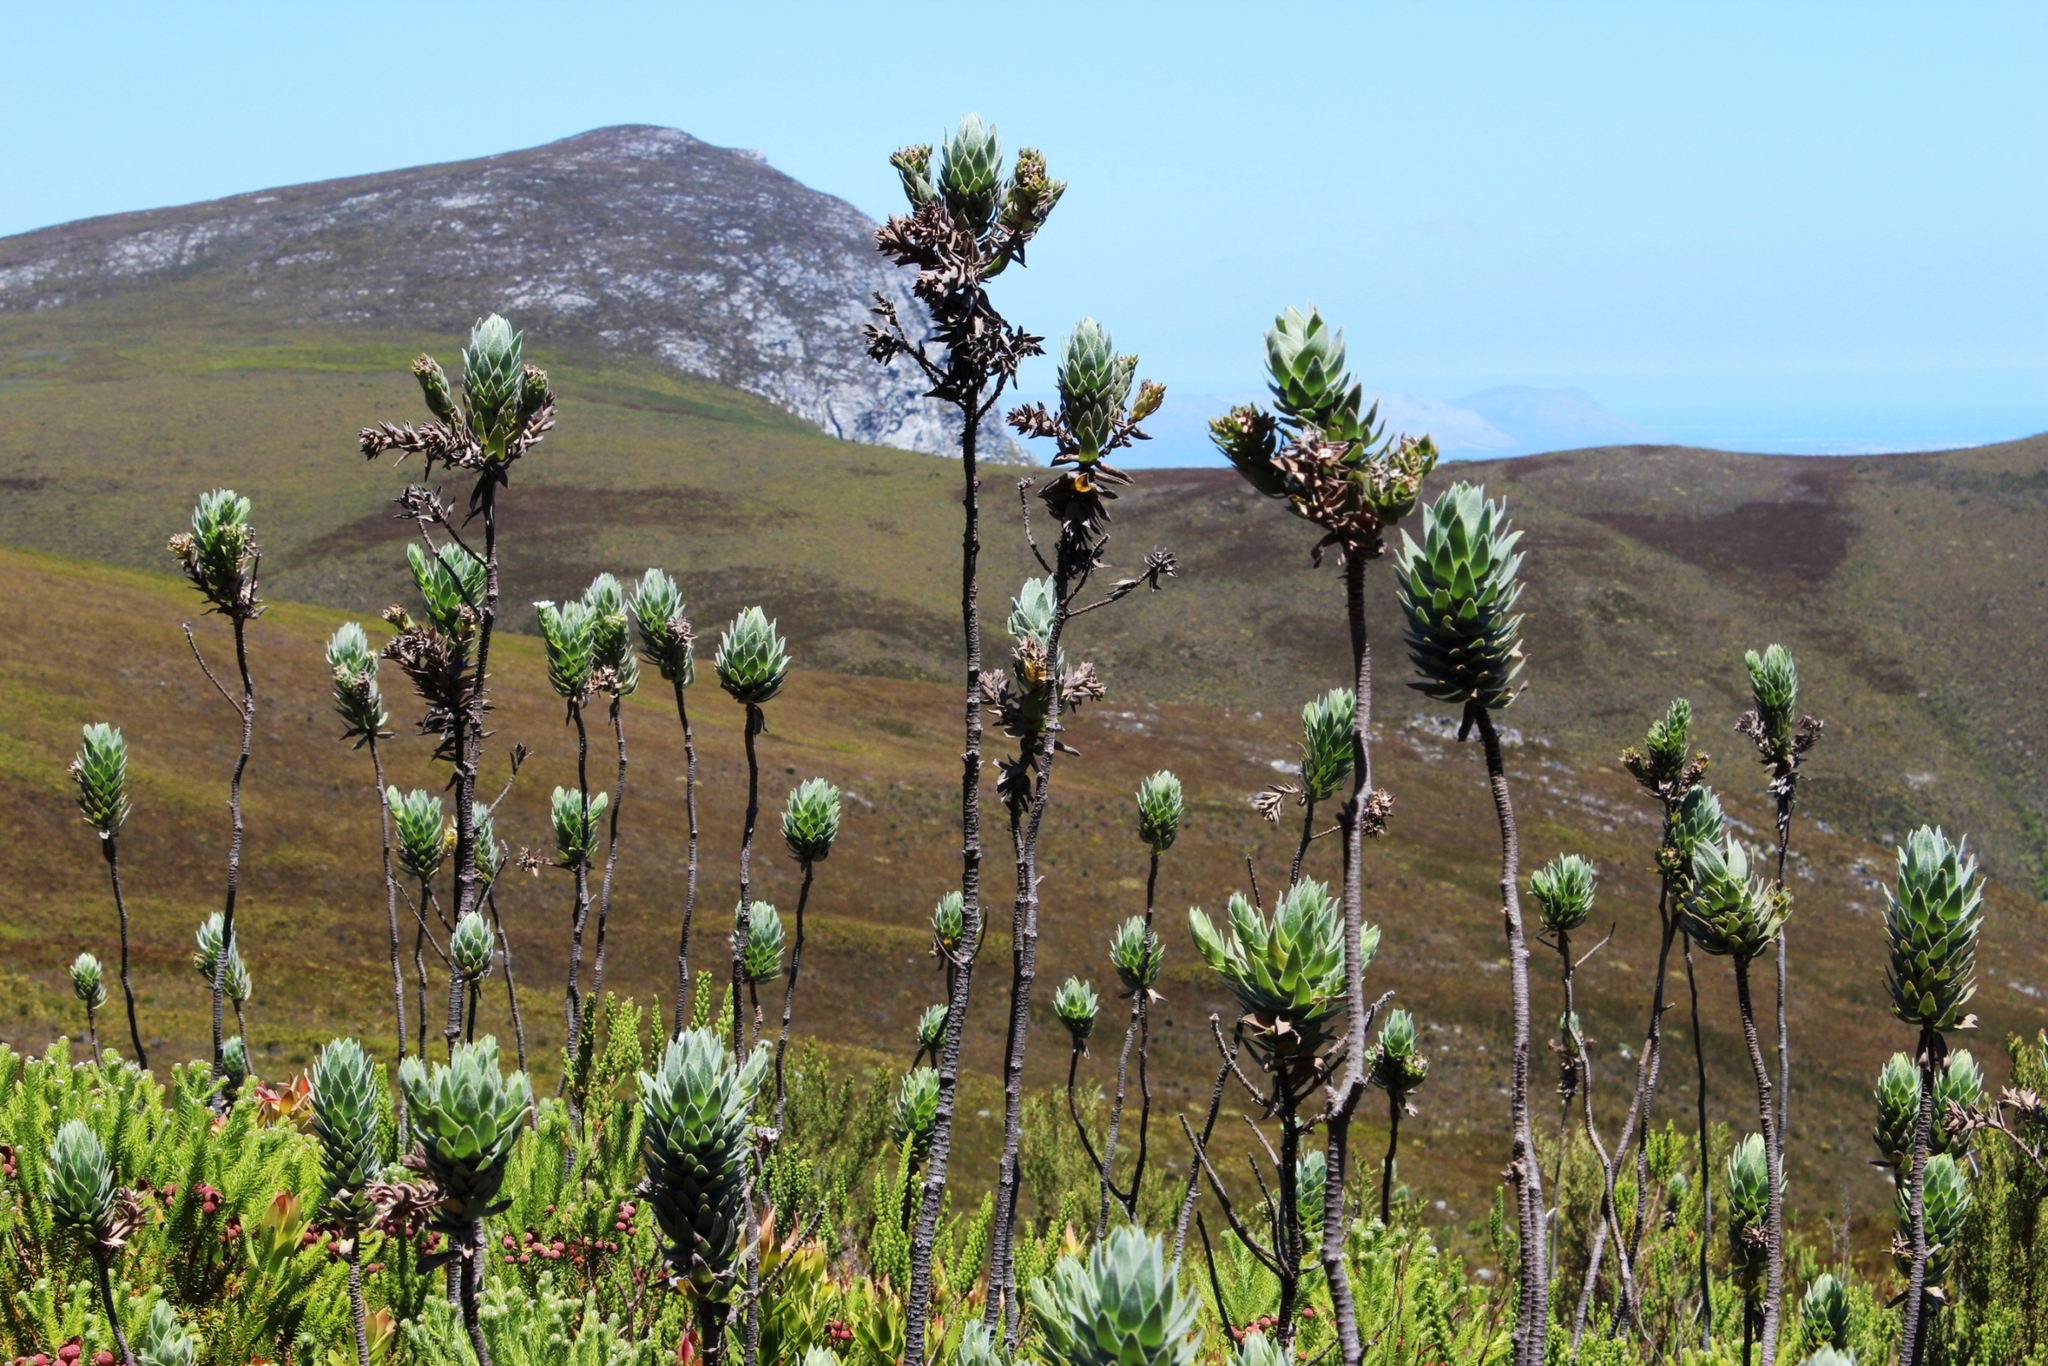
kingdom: Plantae
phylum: Tracheophyta
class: Magnoliopsida
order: Asterales
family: Asteraceae
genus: Osmitopsis
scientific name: Osmitopsis asteriscoides
